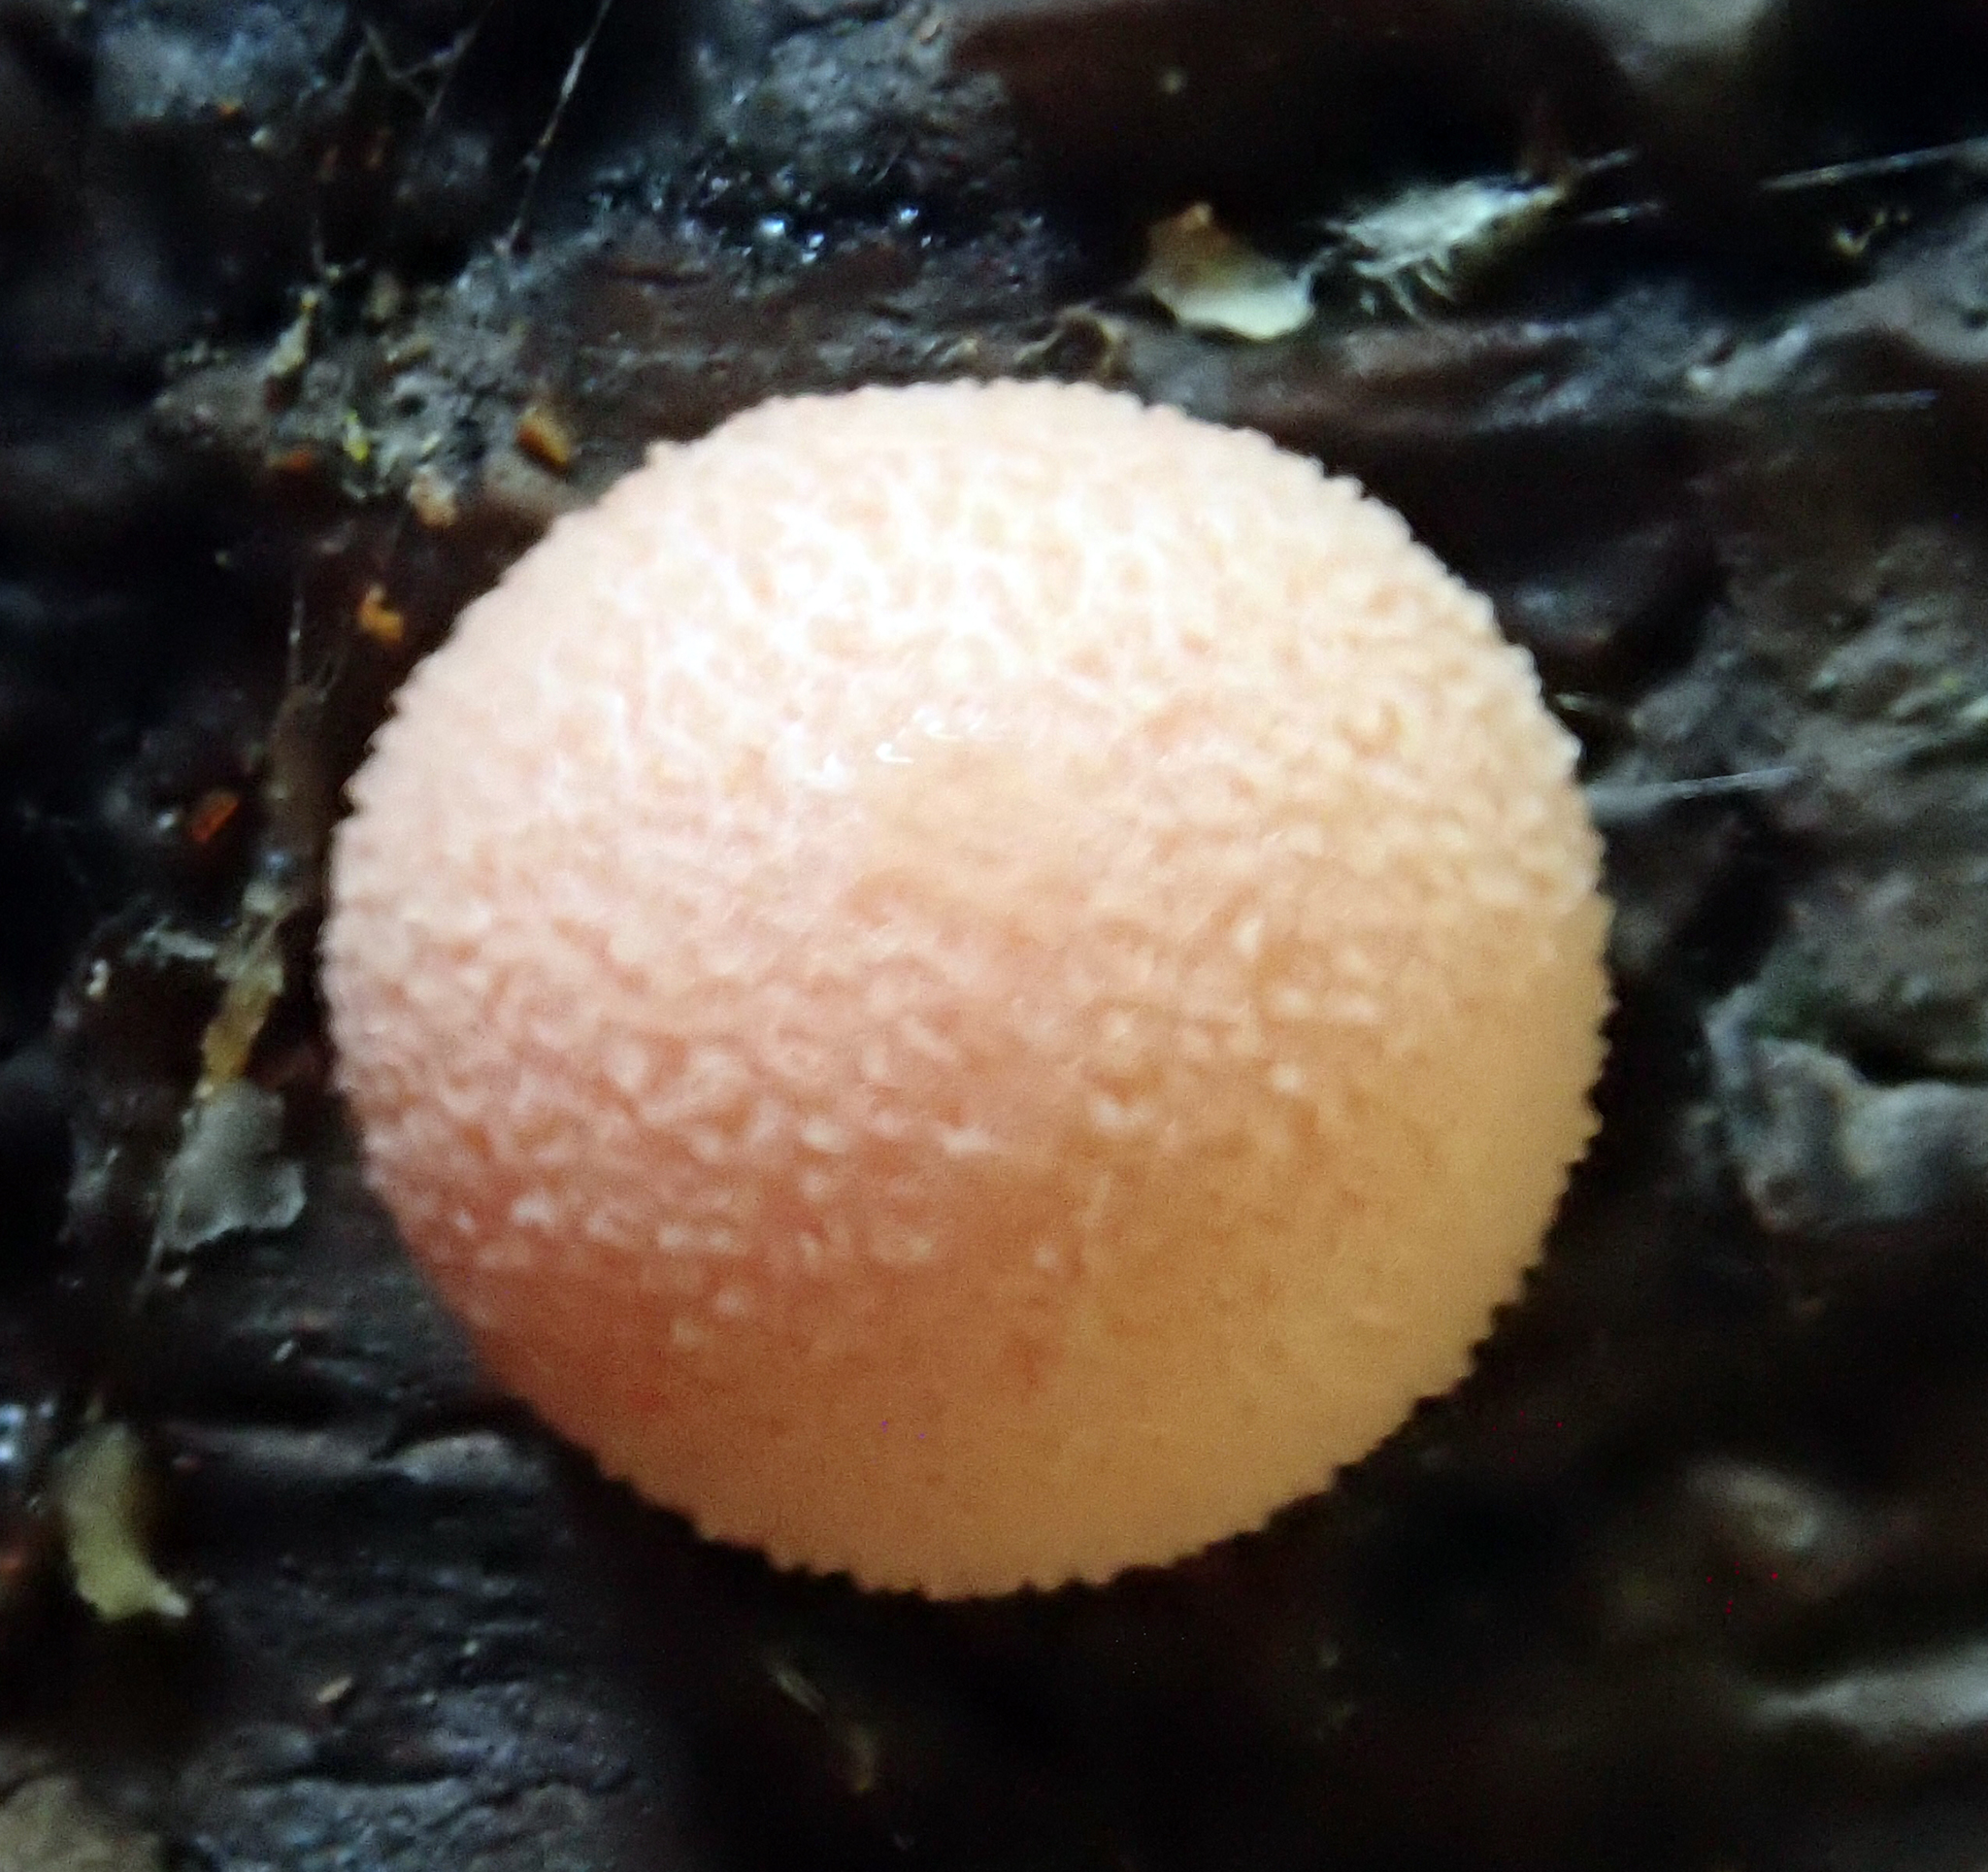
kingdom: Protozoa
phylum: Mycetozoa
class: Myxomycetes
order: Cribrariales
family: Tubiferaceae
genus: Lycogala
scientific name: Lycogala epidendrum
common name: Wolf's milk
